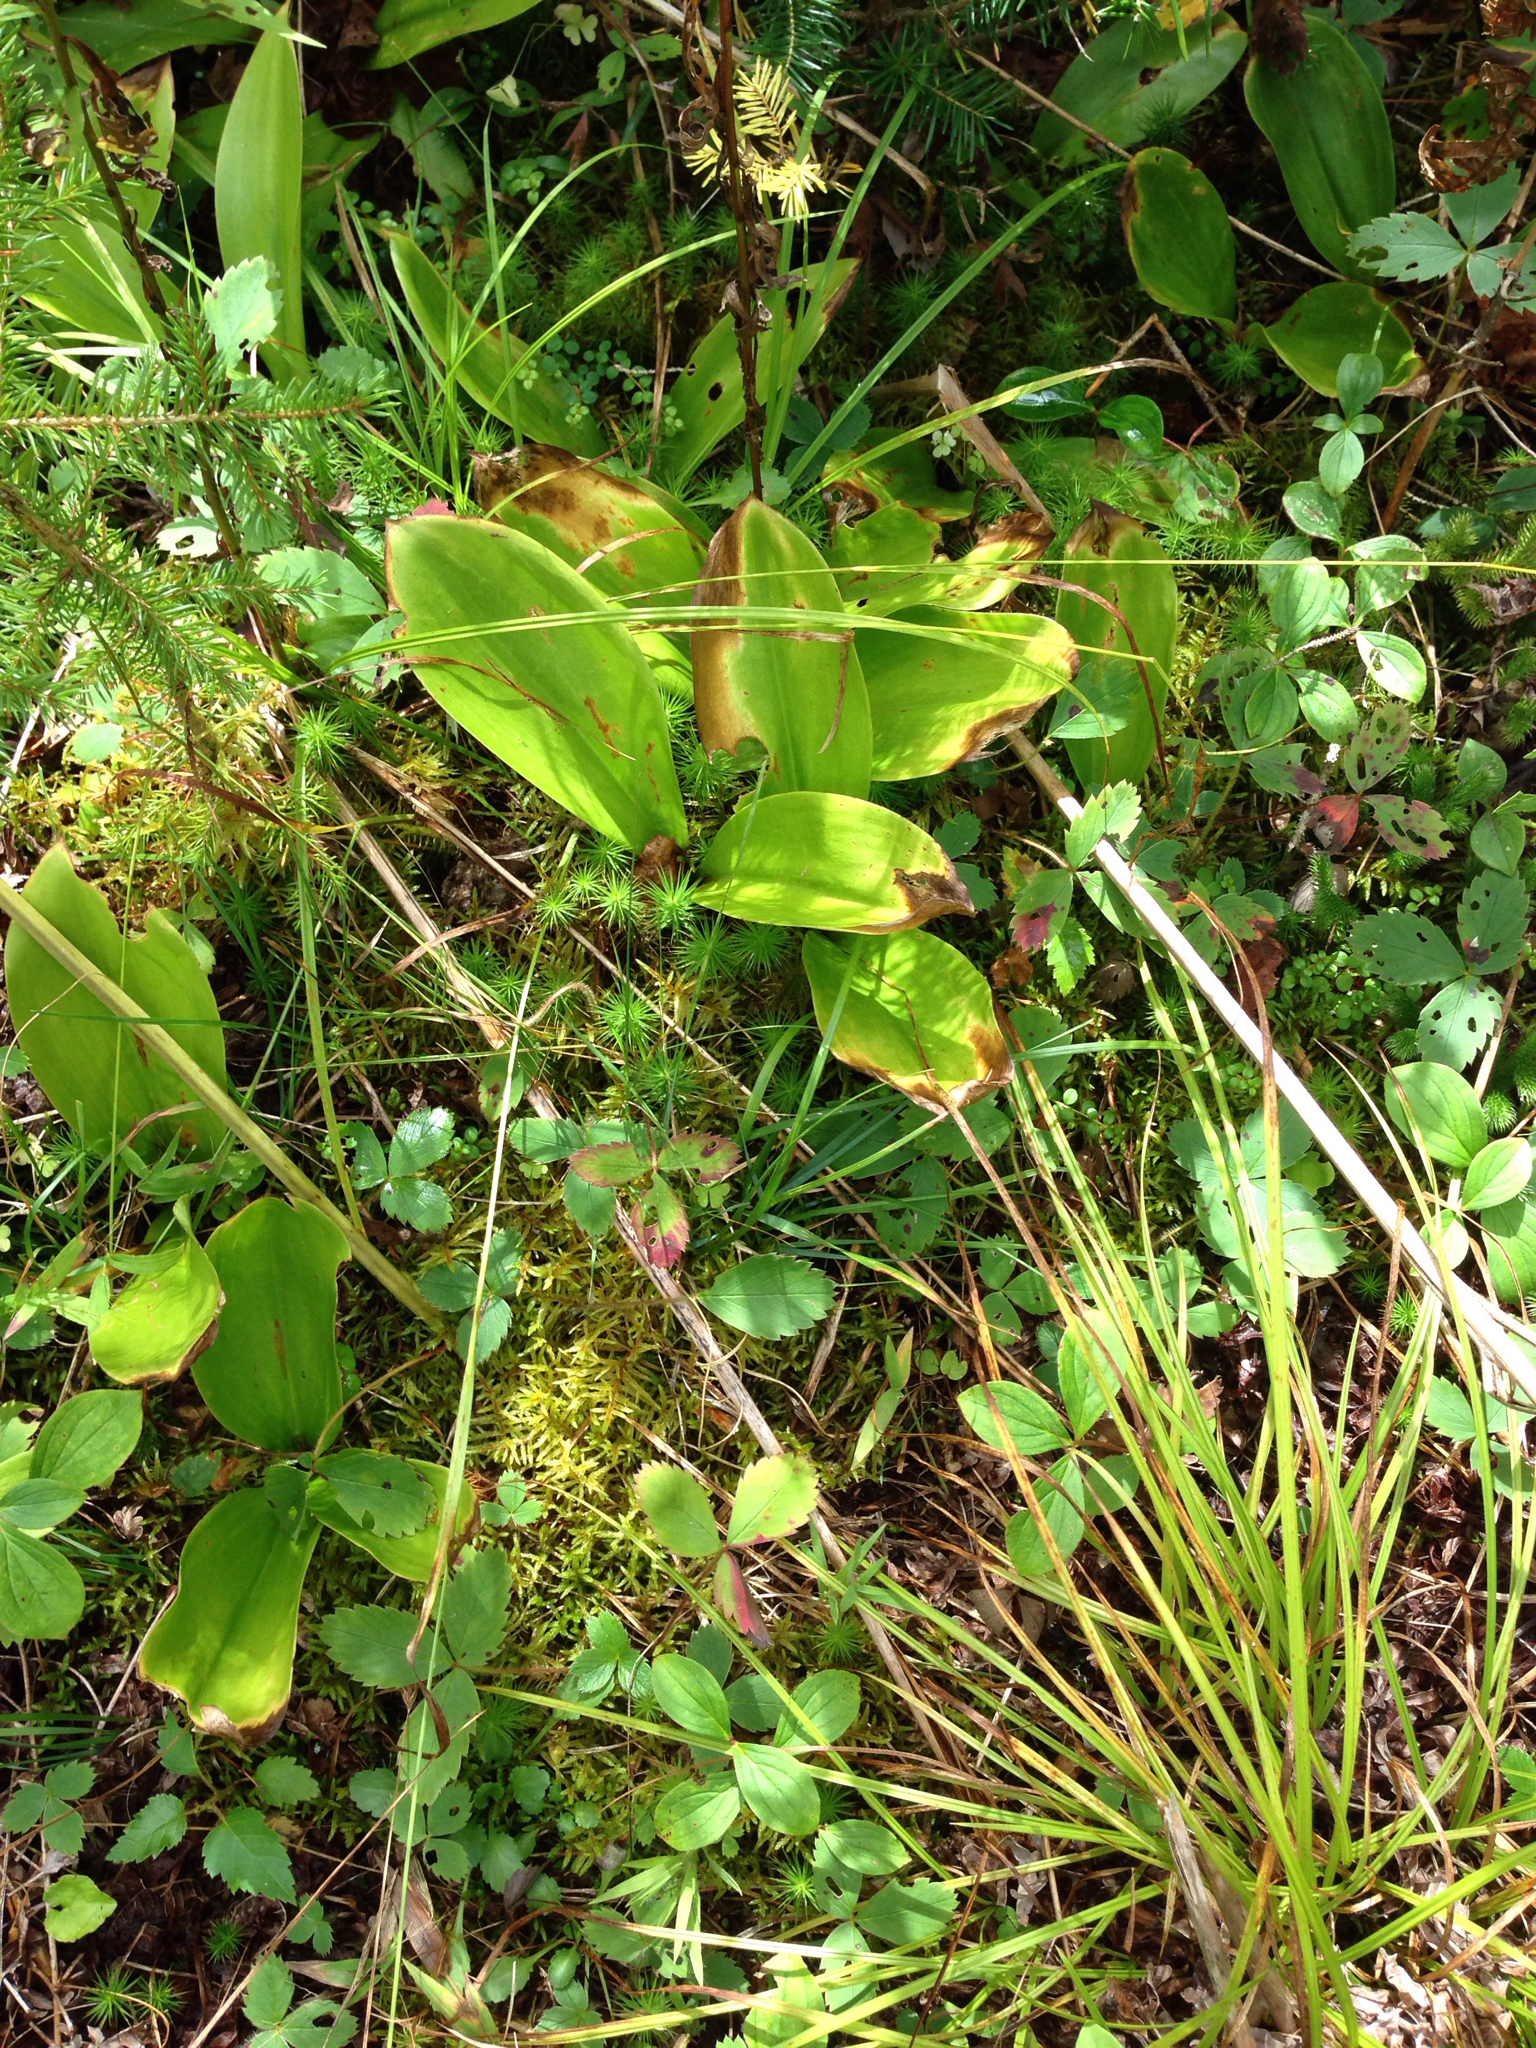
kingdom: Plantae
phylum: Tracheophyta
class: Liliopsida
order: Liliales
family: Liliaceae
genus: Clintonia
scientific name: Clintonia borealis
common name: Yellow clintonia
